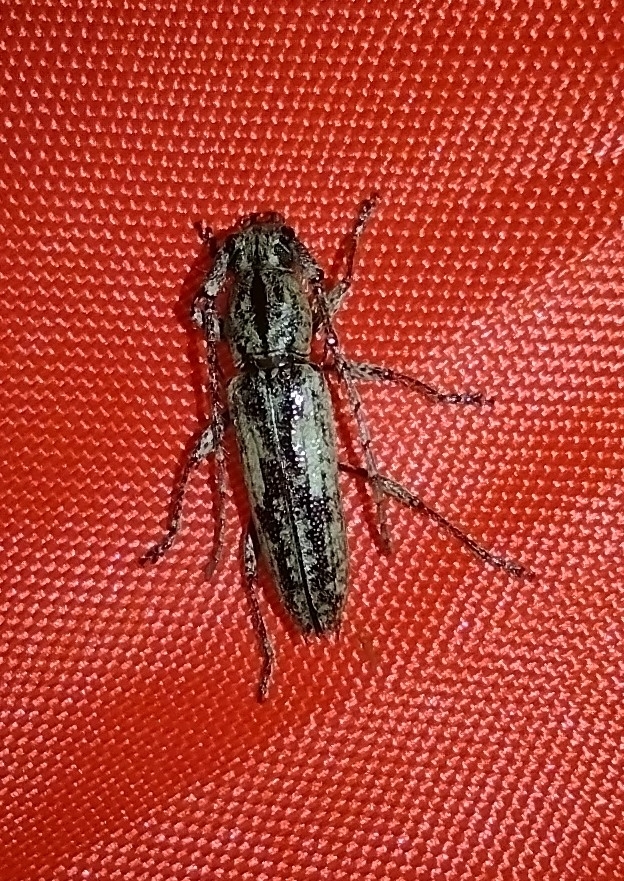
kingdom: Animalia
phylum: Arthropoda
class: Insecta
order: Coleoptera
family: Cerambycidae
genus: Elaphidion
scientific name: Elaphidion mayesae
